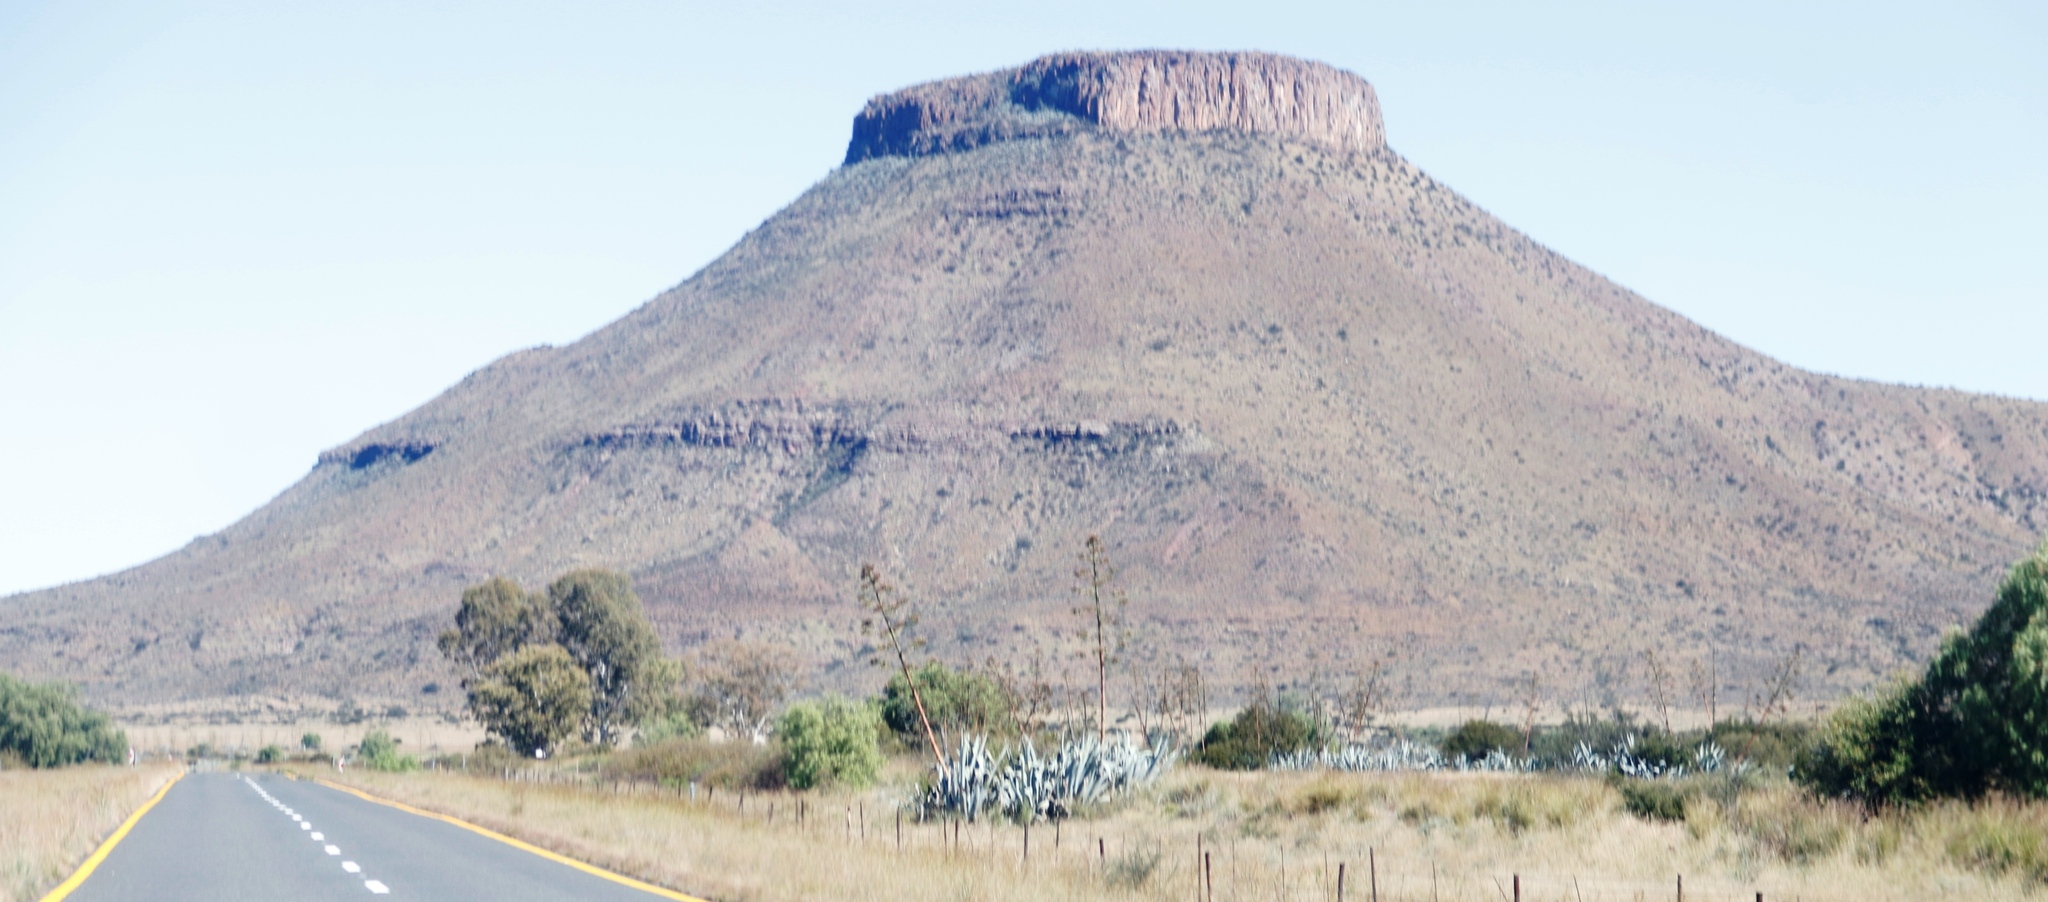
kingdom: Plantae
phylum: Tracheophyta
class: Liliopsida
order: Asparagales
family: Asparagaceae
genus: Agave
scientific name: Agave americana
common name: Centuryplant
